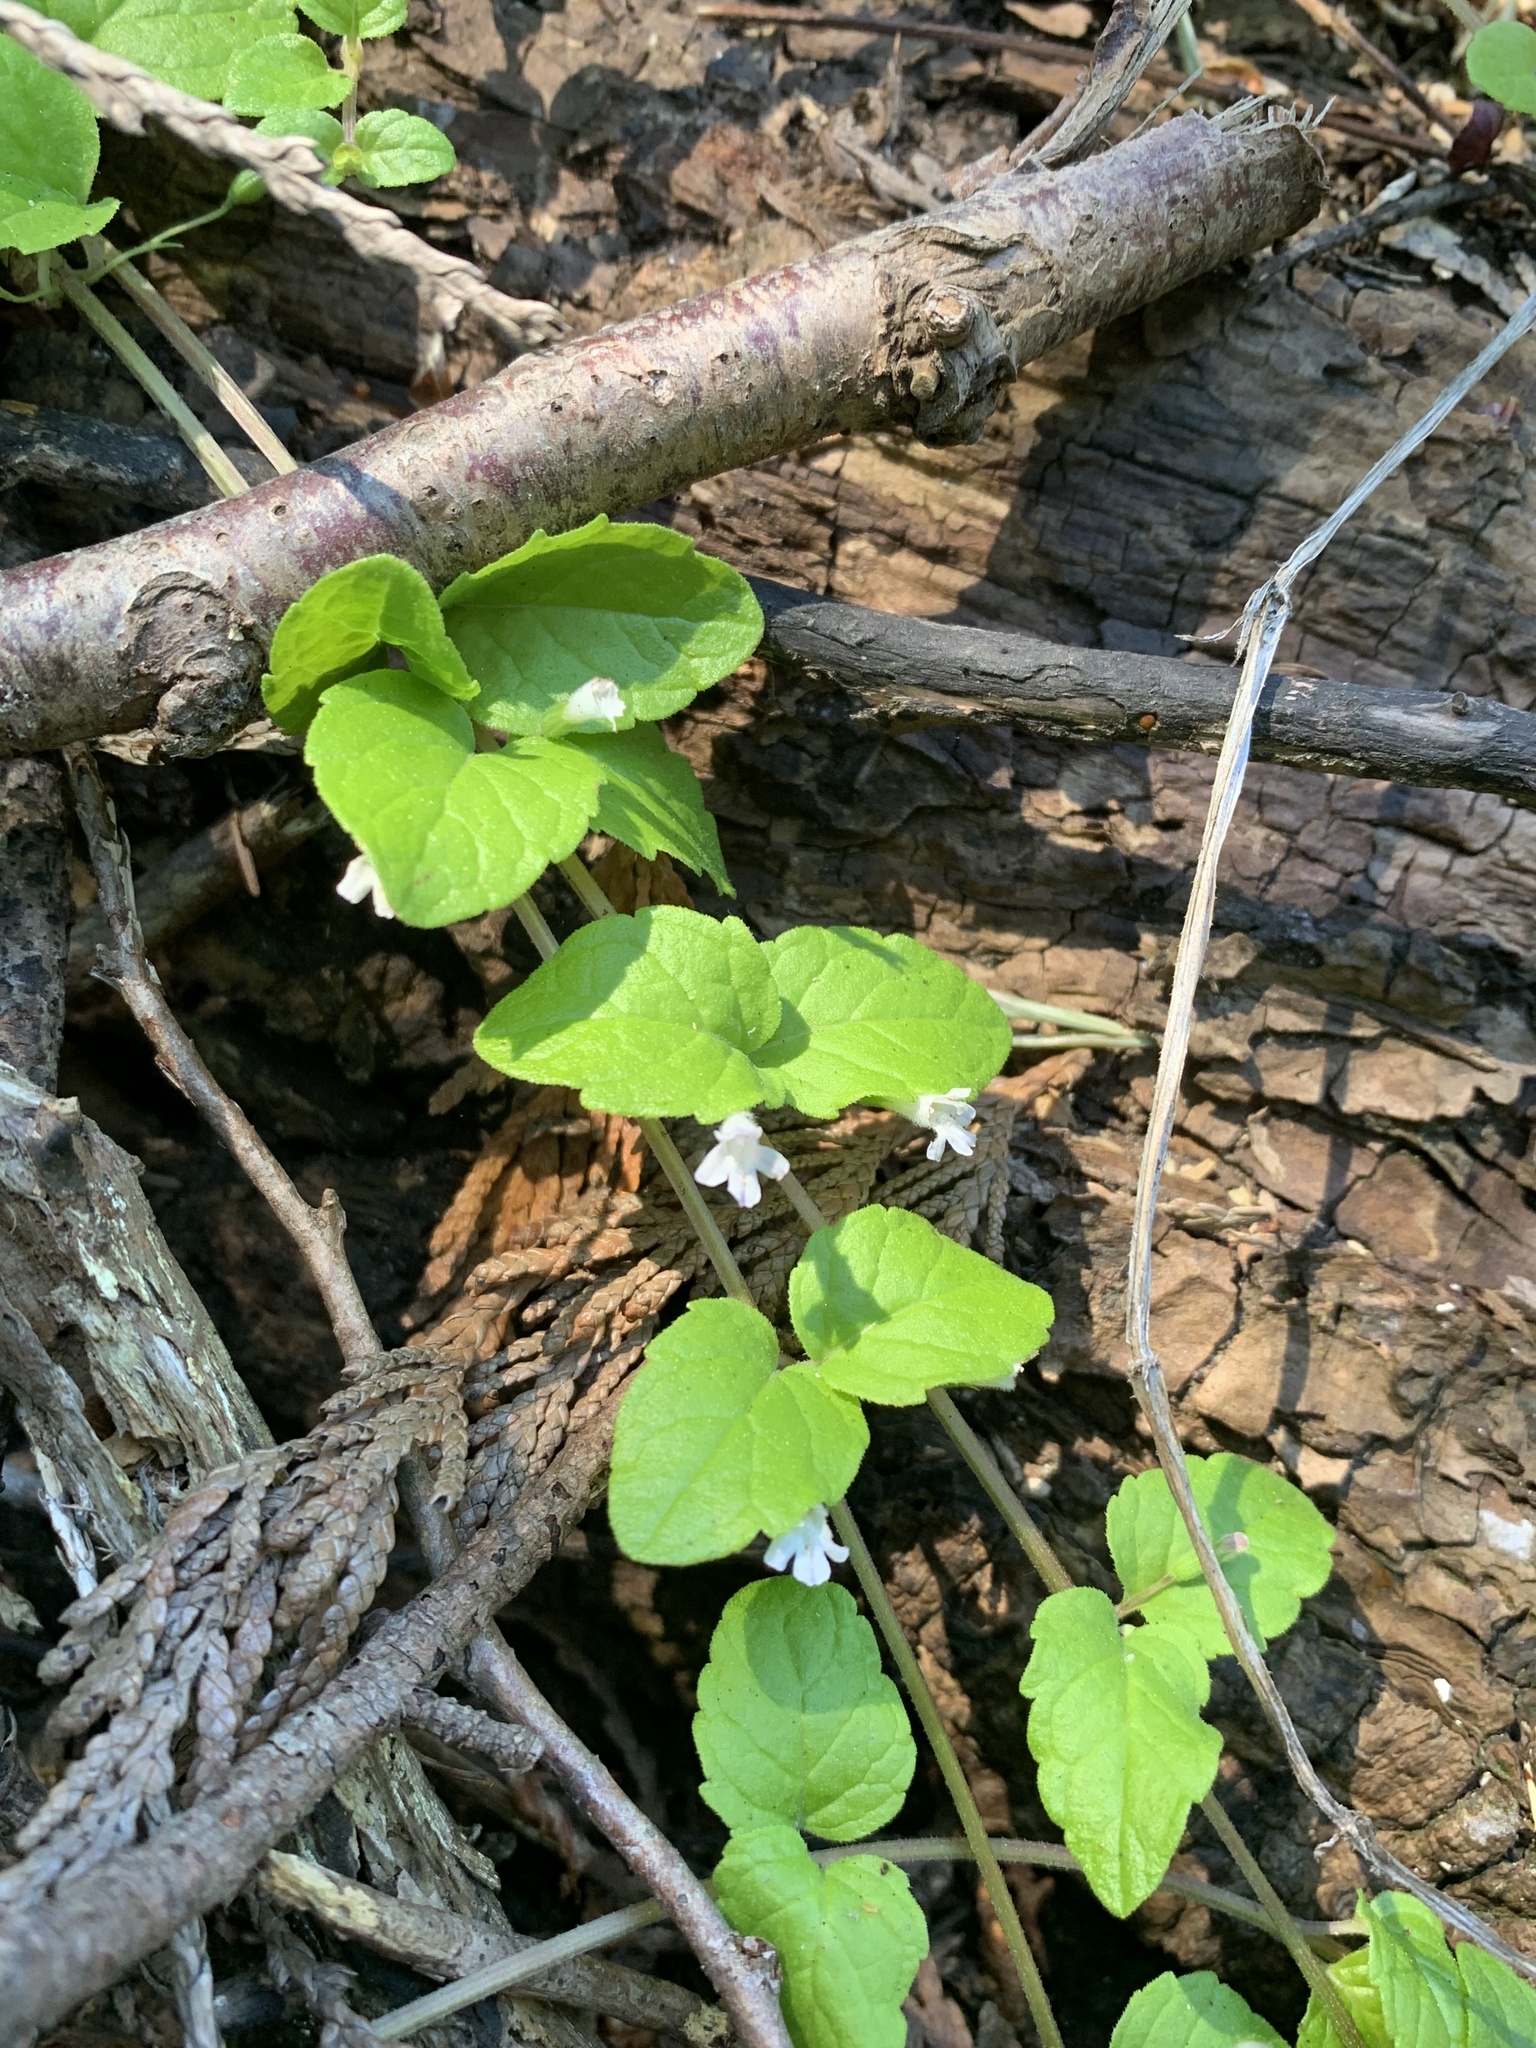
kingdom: Plantae
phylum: Tracheophyta
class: Magnoliopsida
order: Lamiales
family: Lamiaceae
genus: Micromeria
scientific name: Micromeria douglasii
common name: Yerba buena
